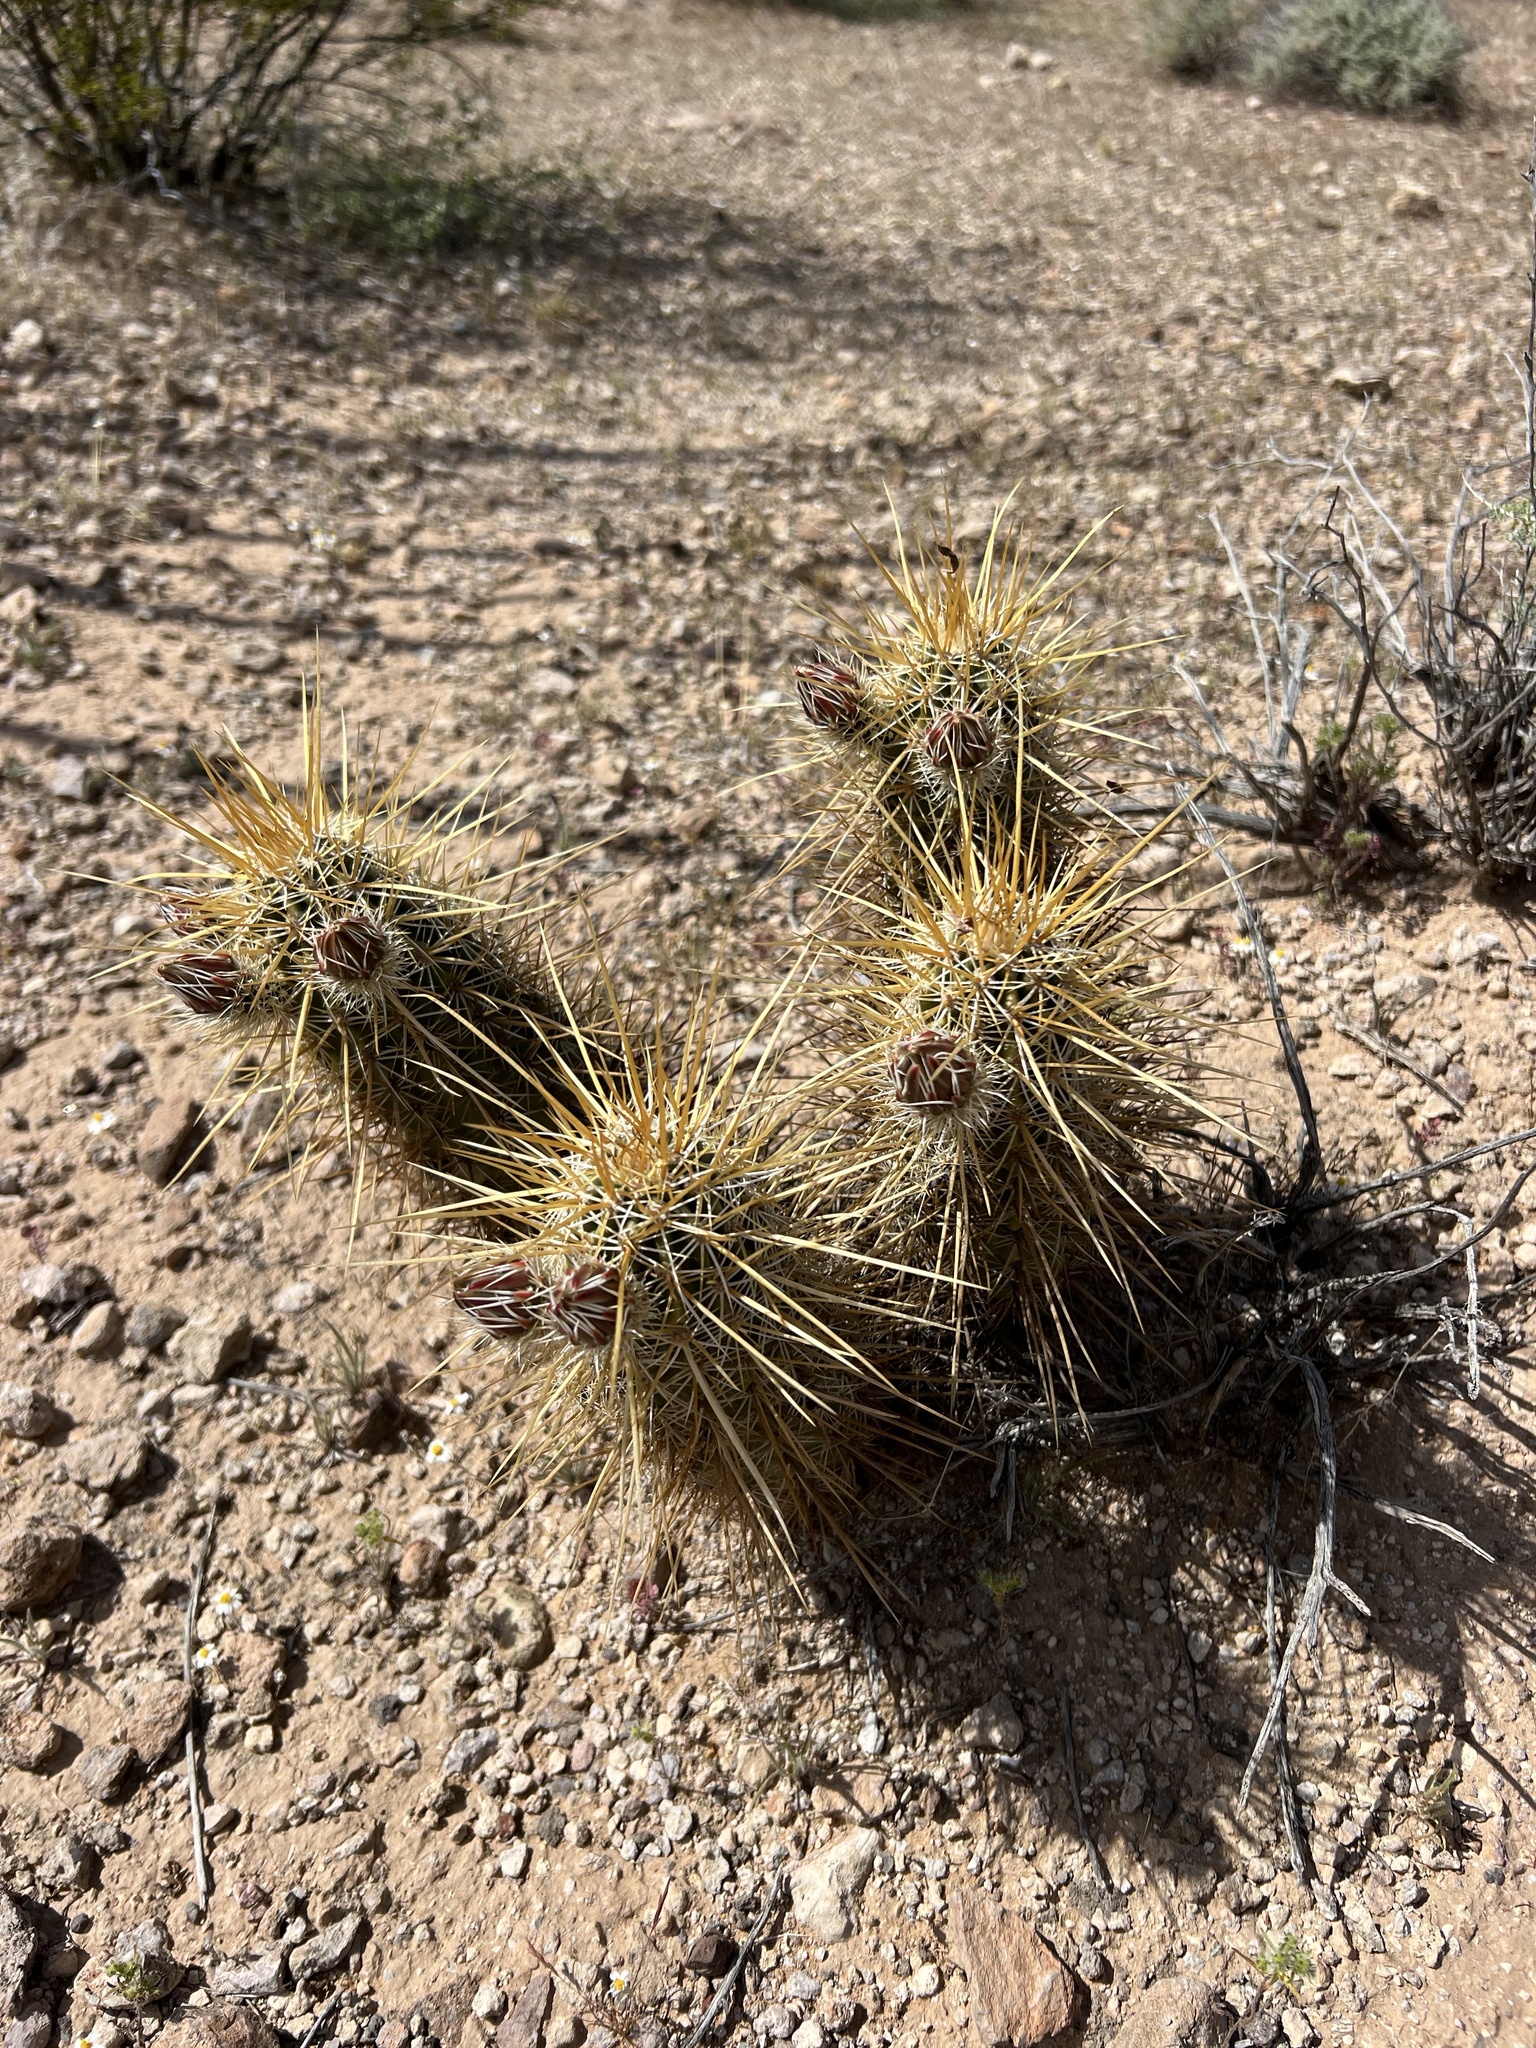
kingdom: Plantae
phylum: Tracheophyta
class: Magnoliopsida
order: Caryophyllales
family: Cactaceae
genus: Echinocereus
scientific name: Echinocereus engelmannii
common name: Engelmann's hedgehog cactus
